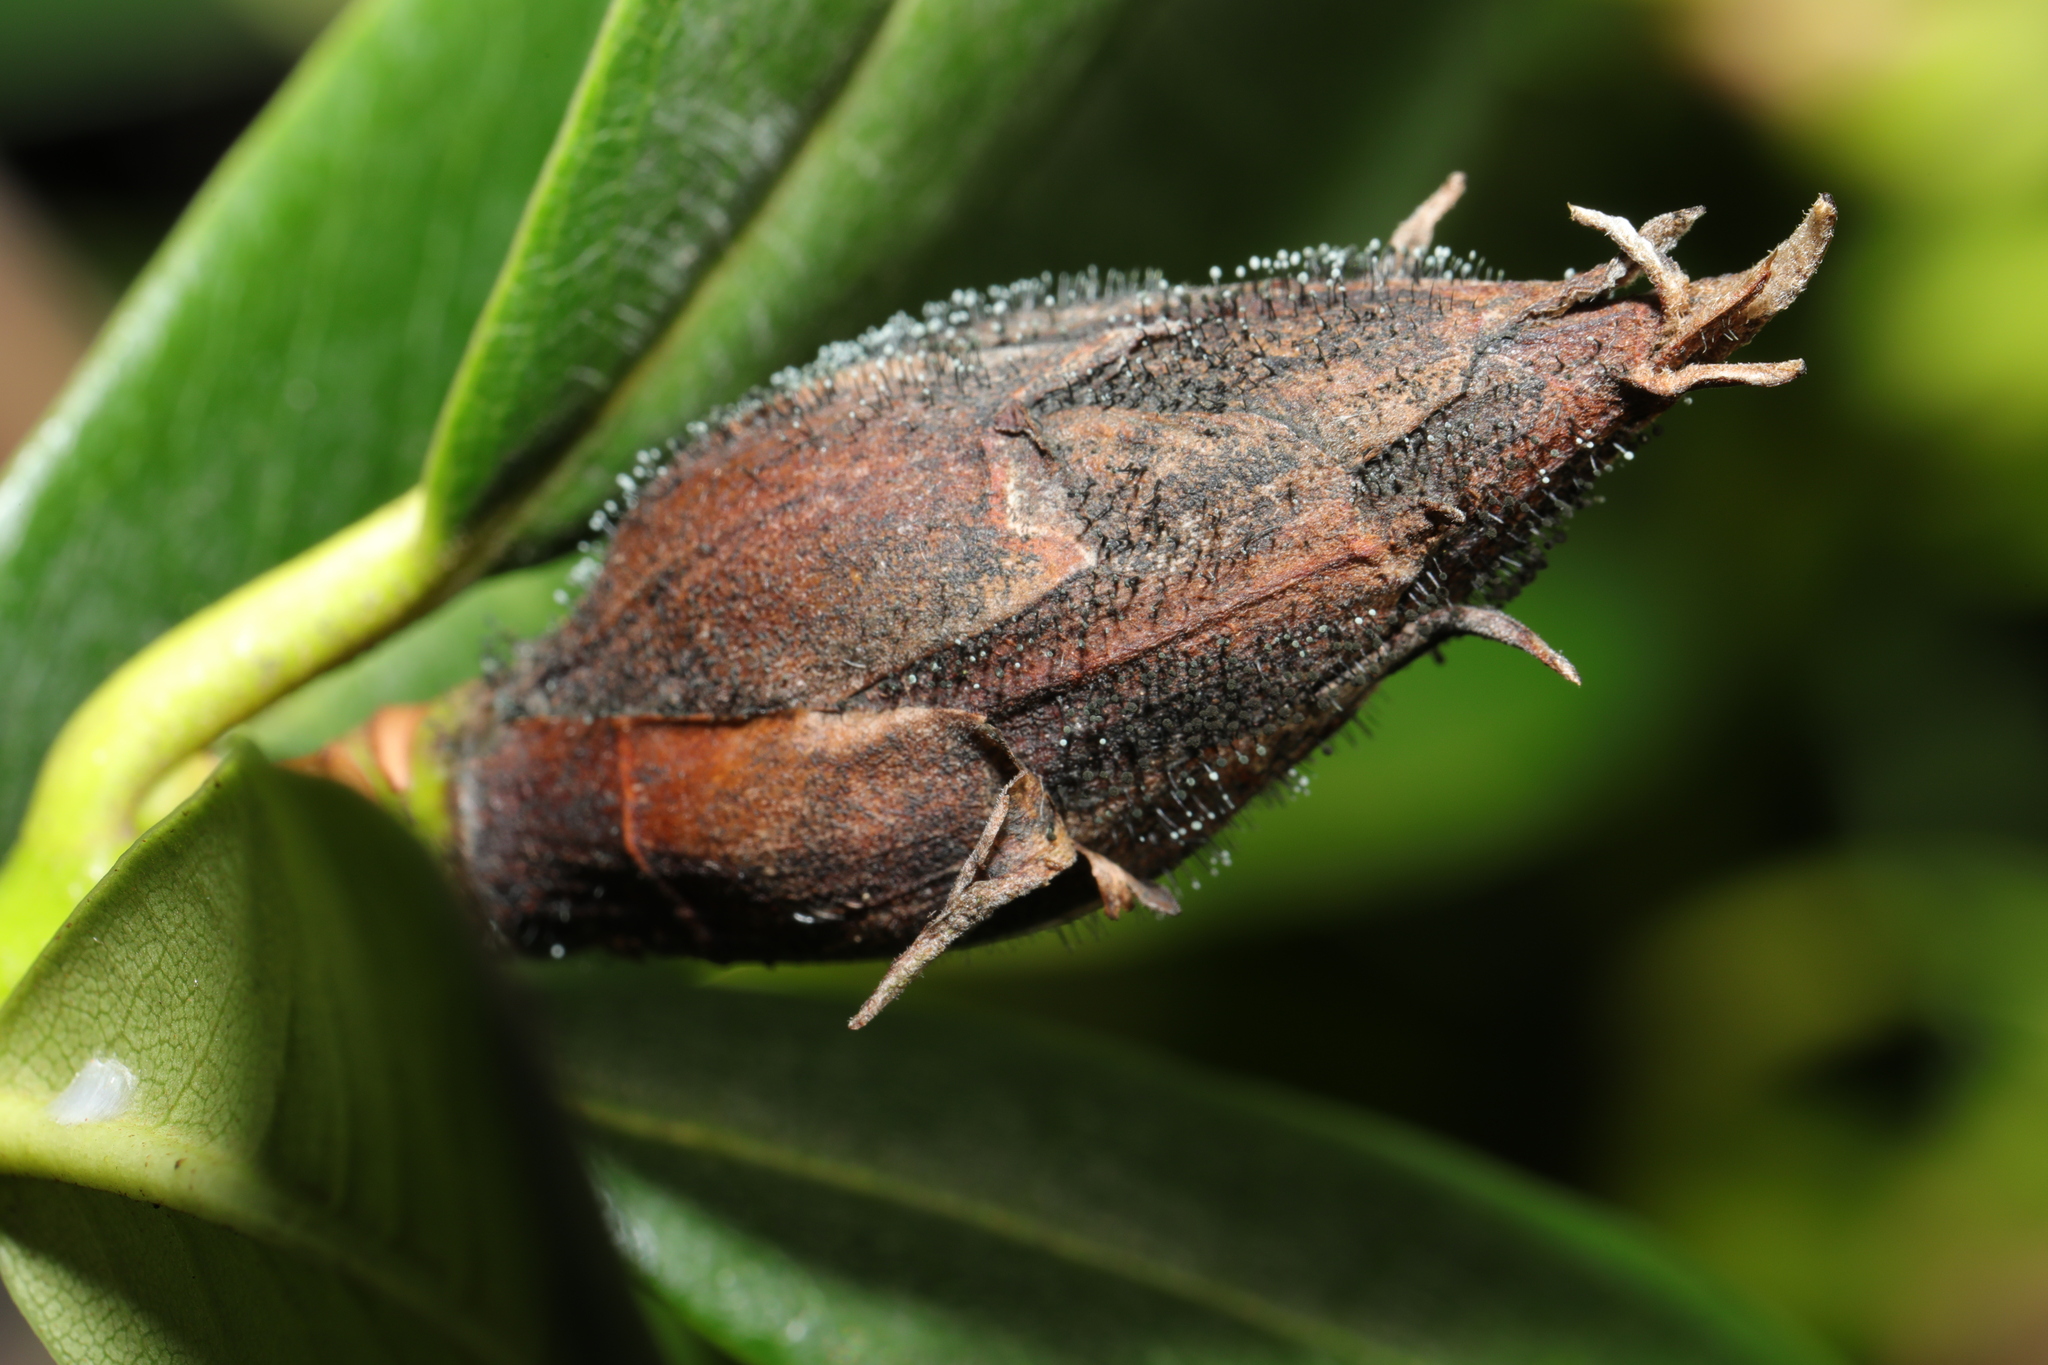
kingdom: Fungi
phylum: Ascomycota
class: Dothideomycetes
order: Pleosporales
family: Melanommataceae
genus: Seifertia
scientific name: Seifertia azaleae
